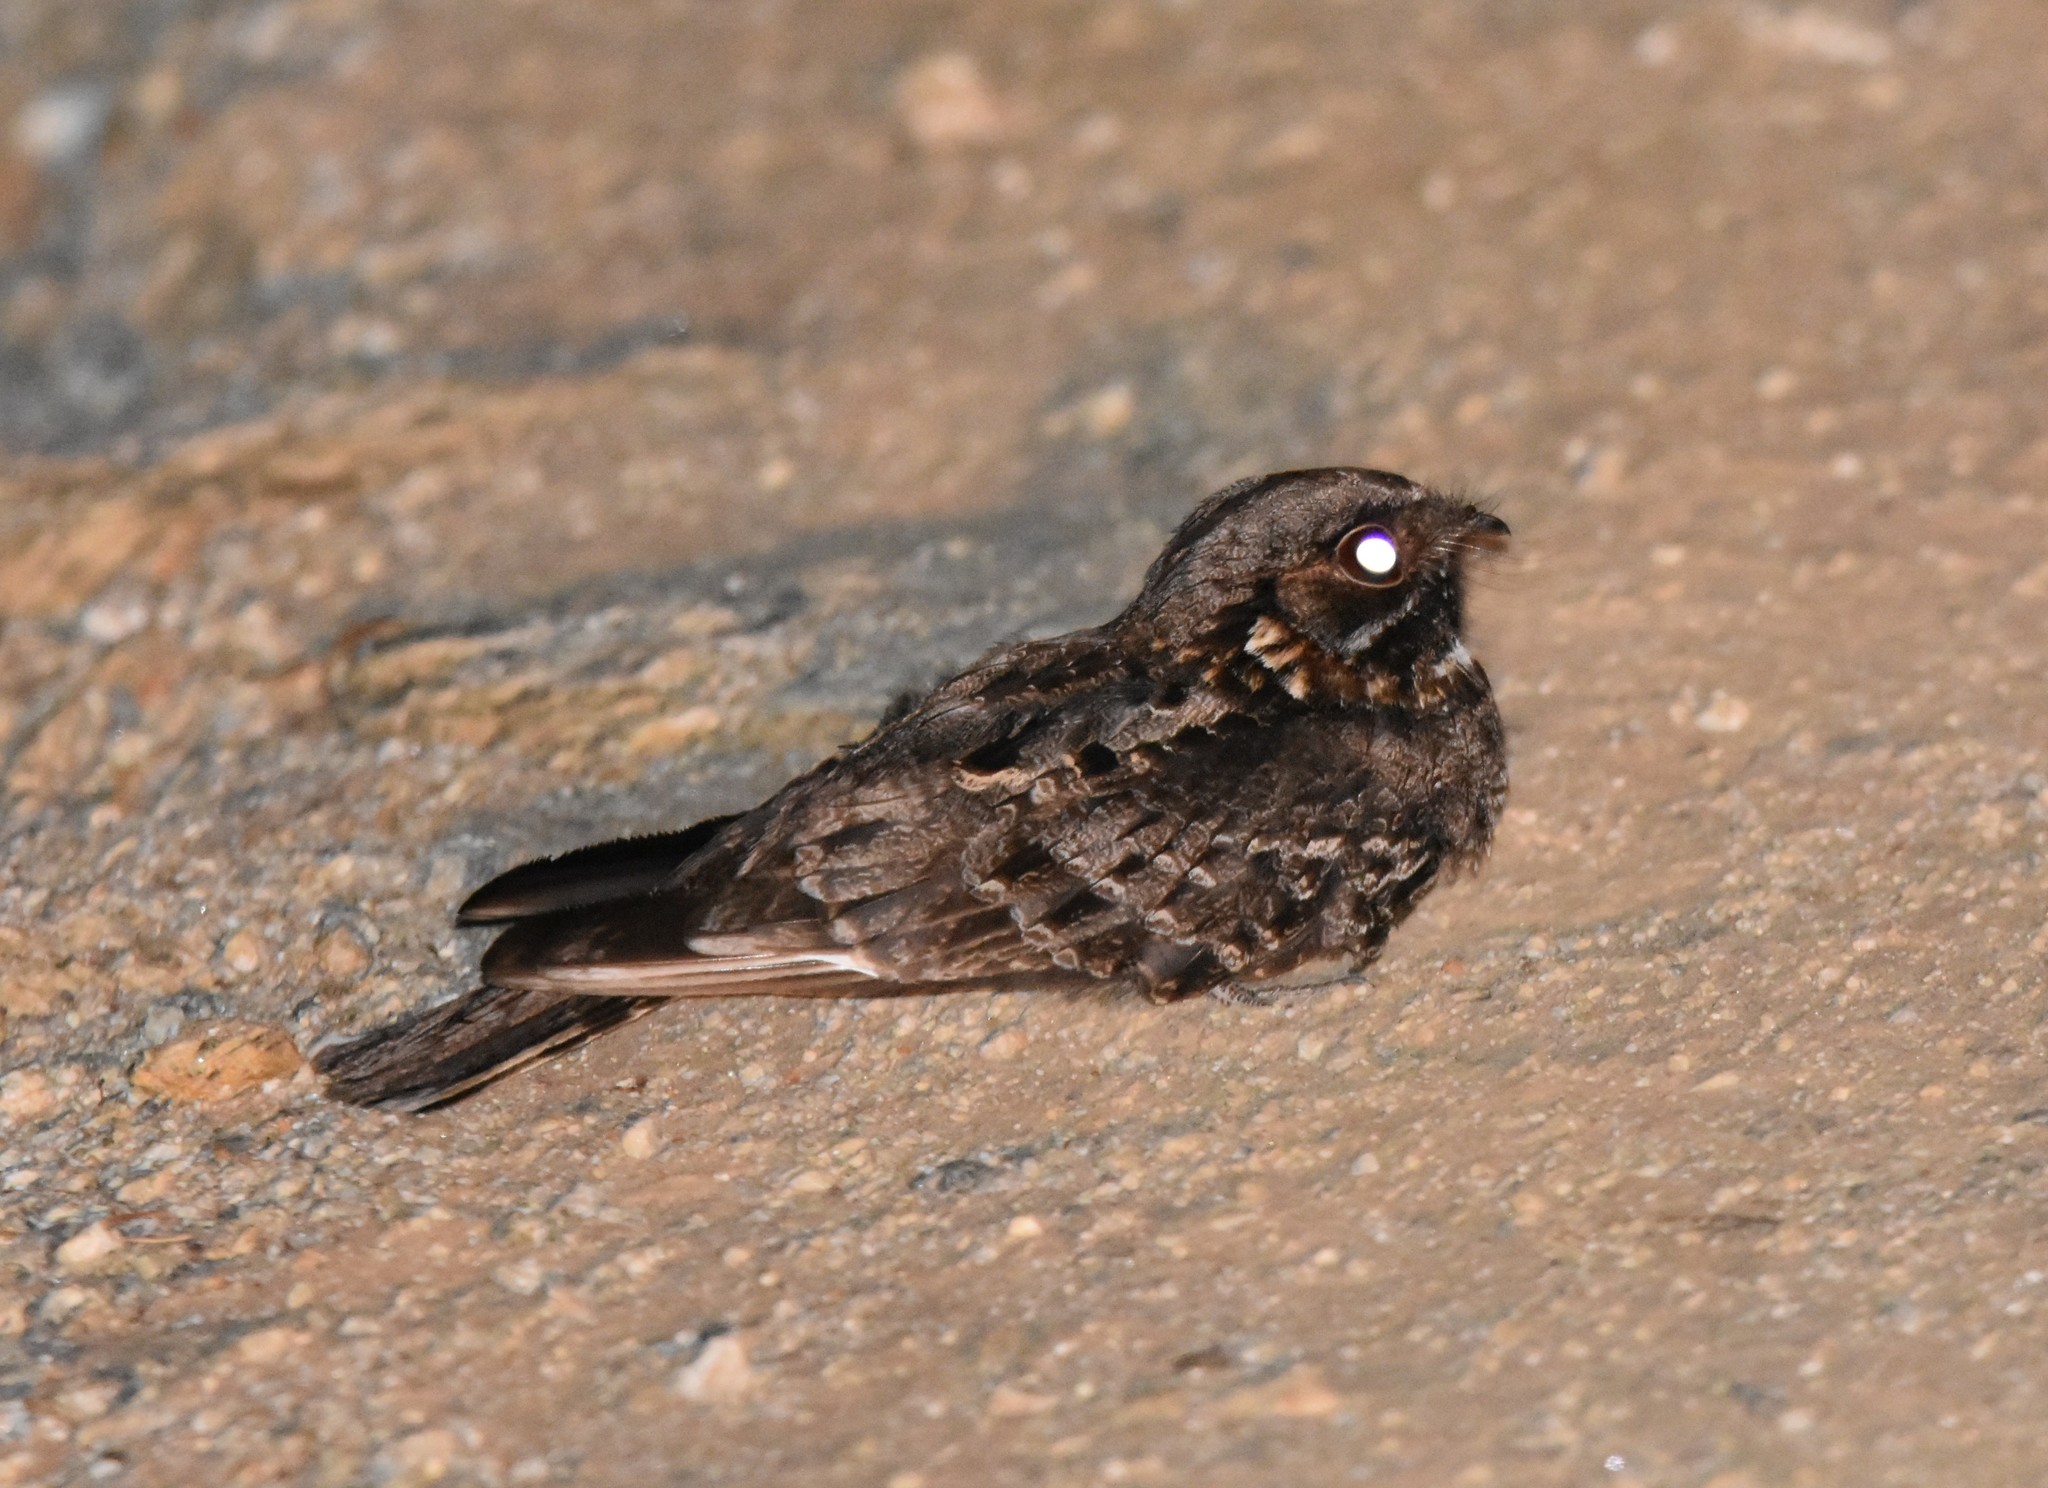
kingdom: Animalia
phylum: Chordata
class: Aves
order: Caprimulgiformes
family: Caprimulgidae
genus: Caprimulgus
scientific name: Caprimulgus pectoralis
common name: Fiery-necked nightjar
